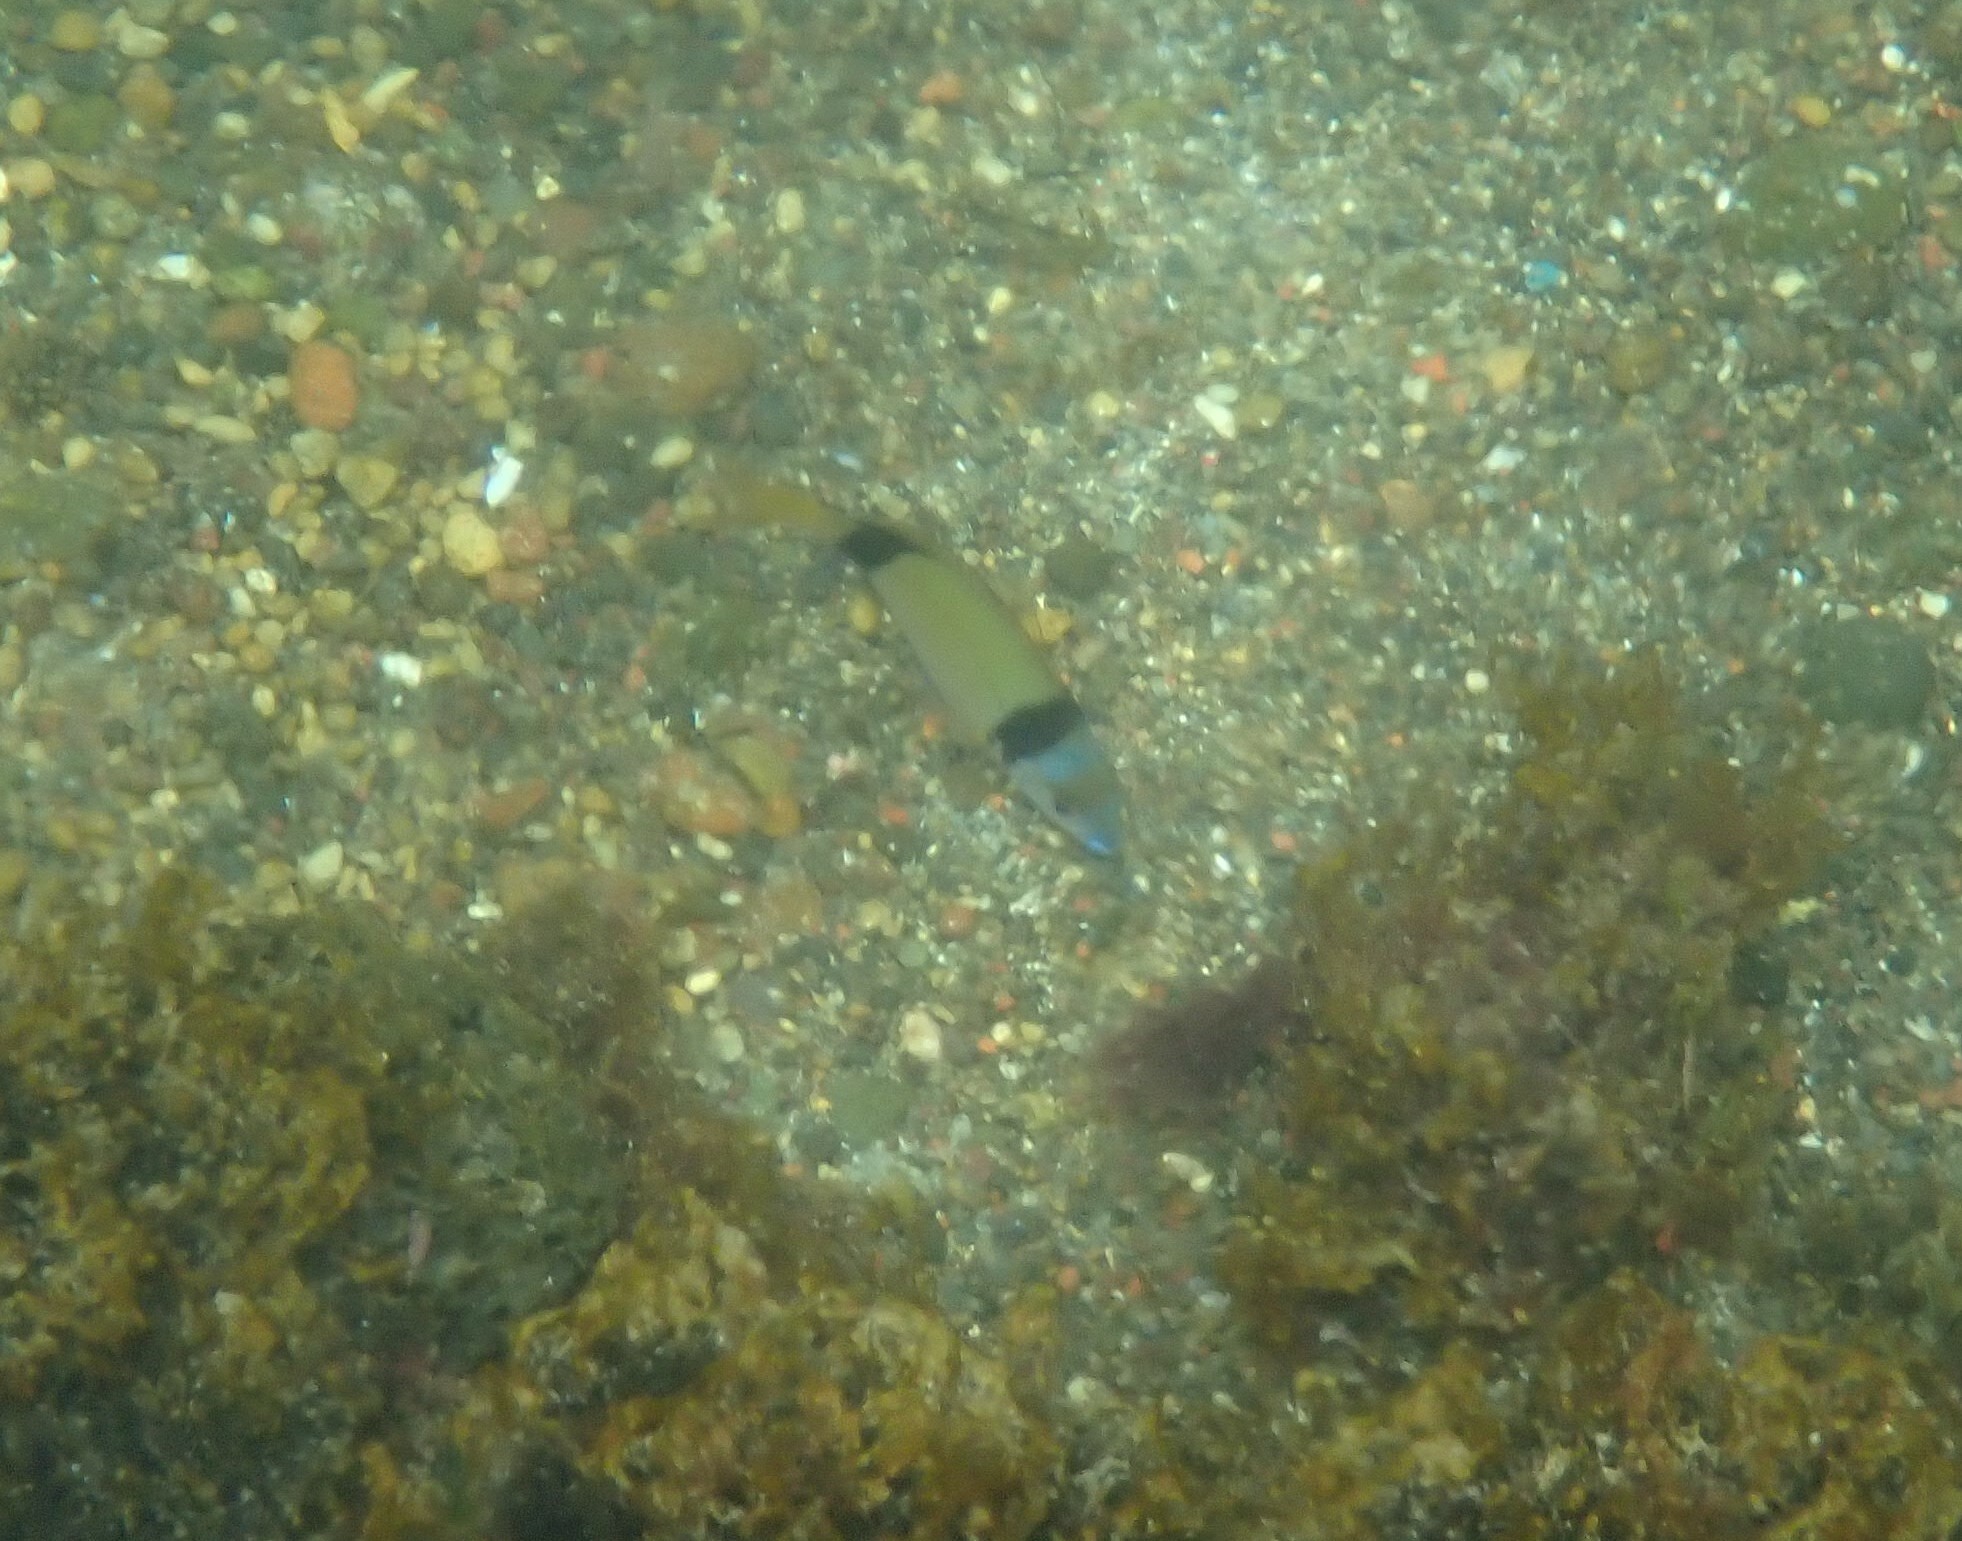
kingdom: Animalia
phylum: Chordata
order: Perciformes
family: Sparidae
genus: Diplodus
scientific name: Diplodus vulgaris
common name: Common two-banded seabream
